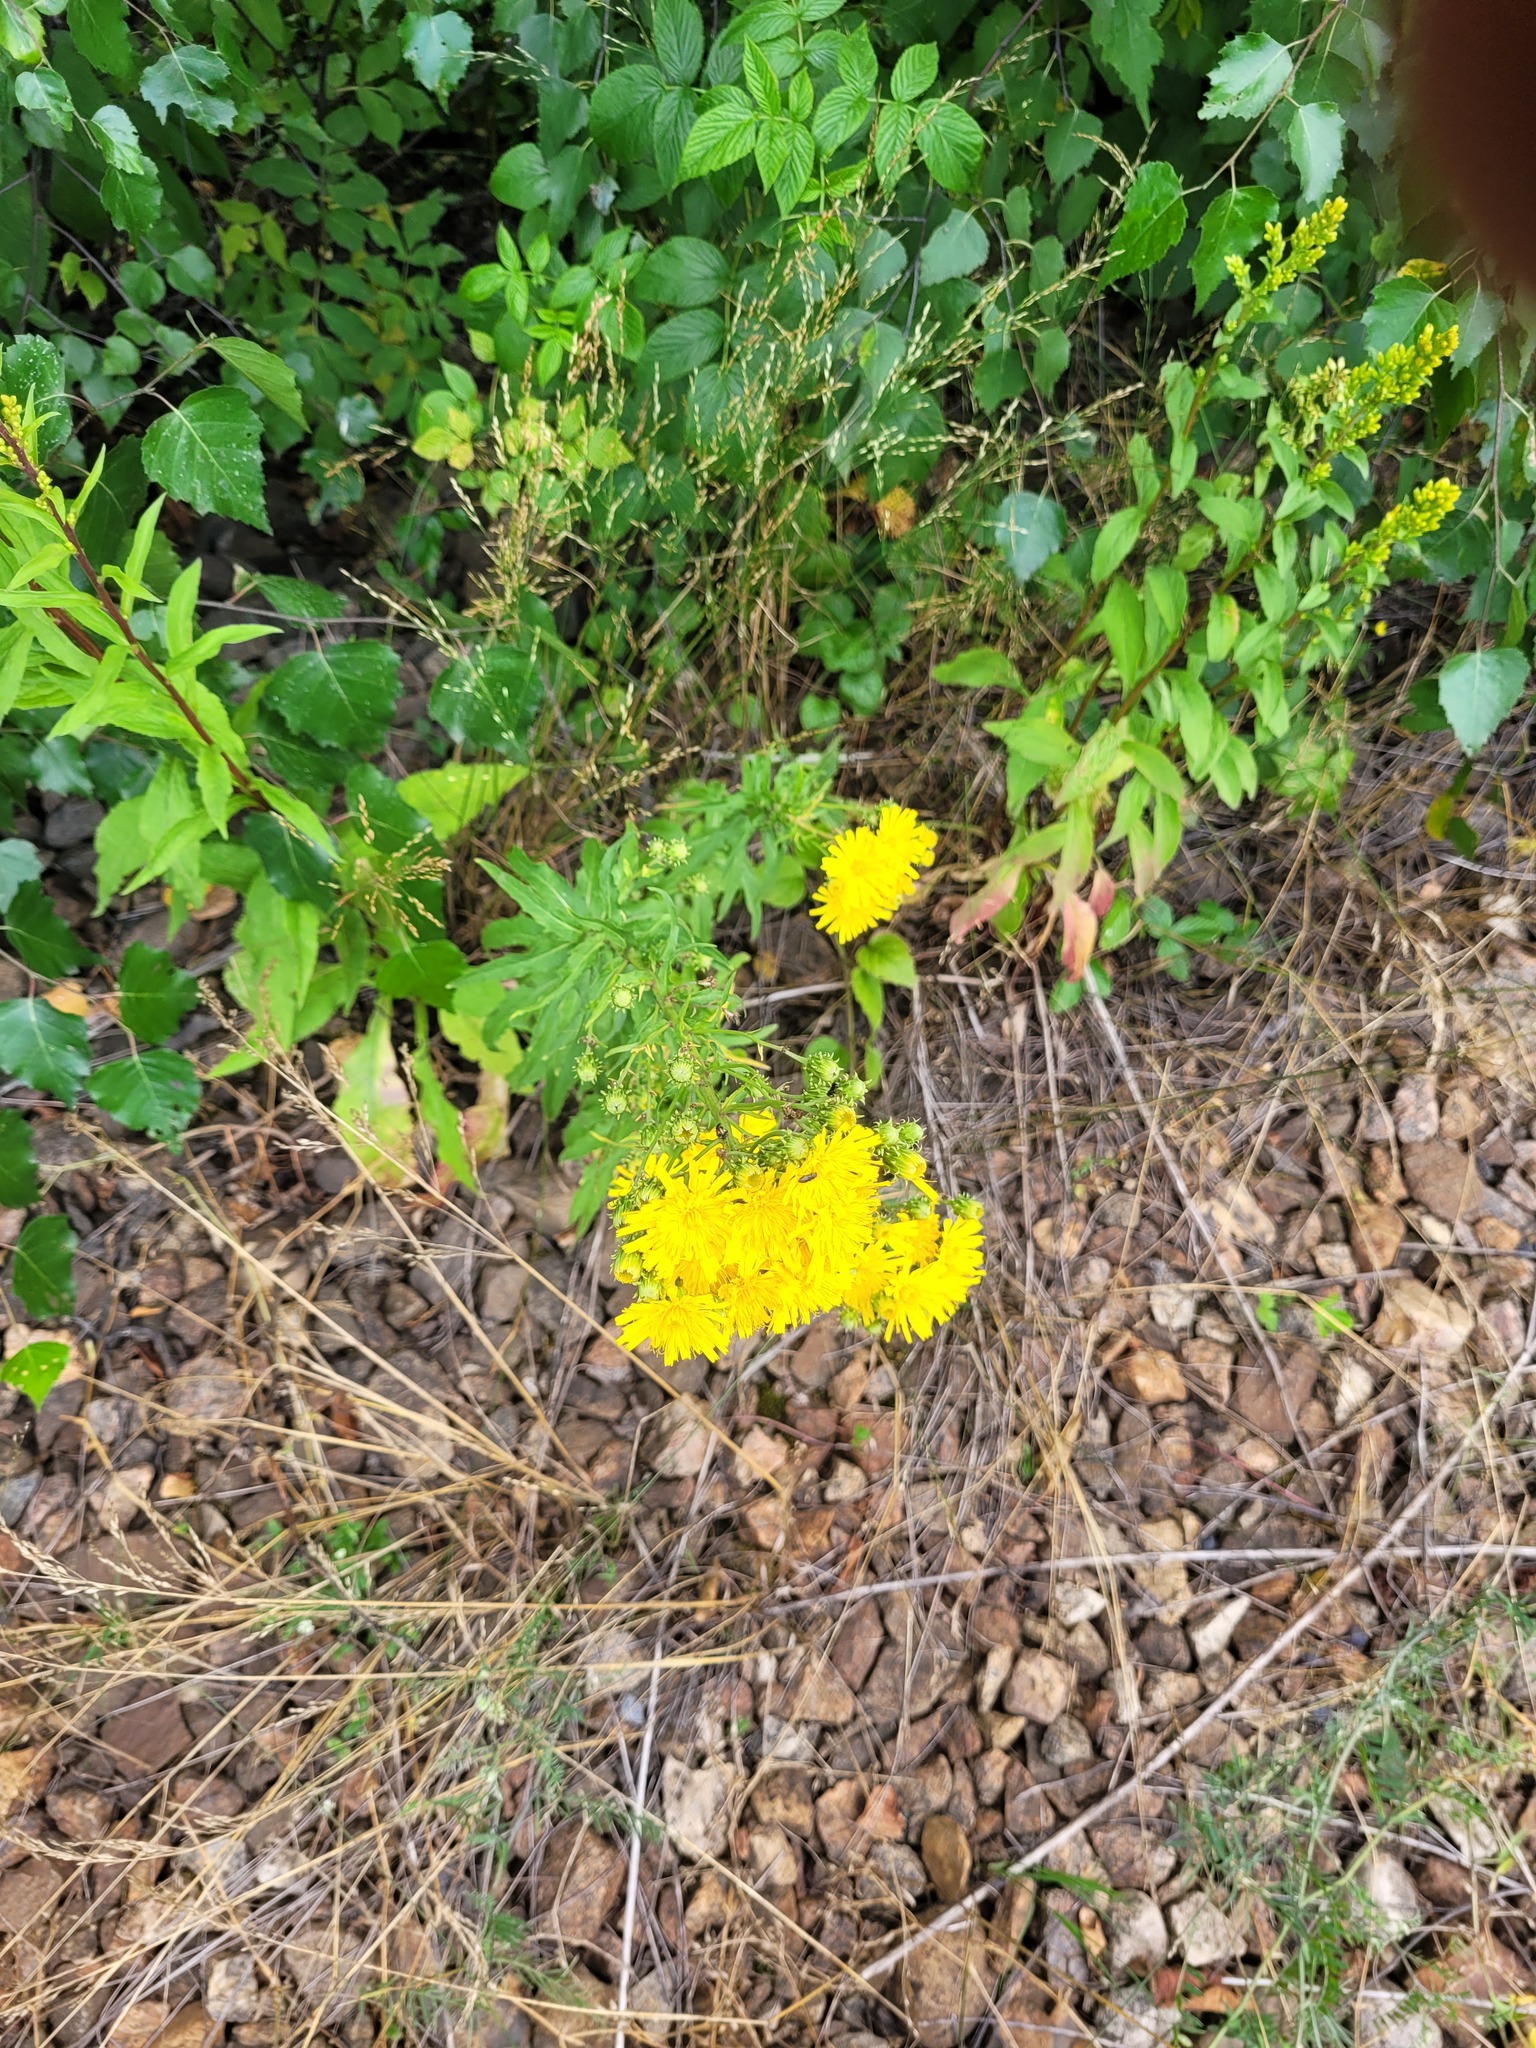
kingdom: Plantae
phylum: Tracheophyta
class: Magnoliopsida
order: Asterales
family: Asteraceae
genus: Hieracium
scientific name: Hieracium umbellatum
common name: Northern hawkweed
